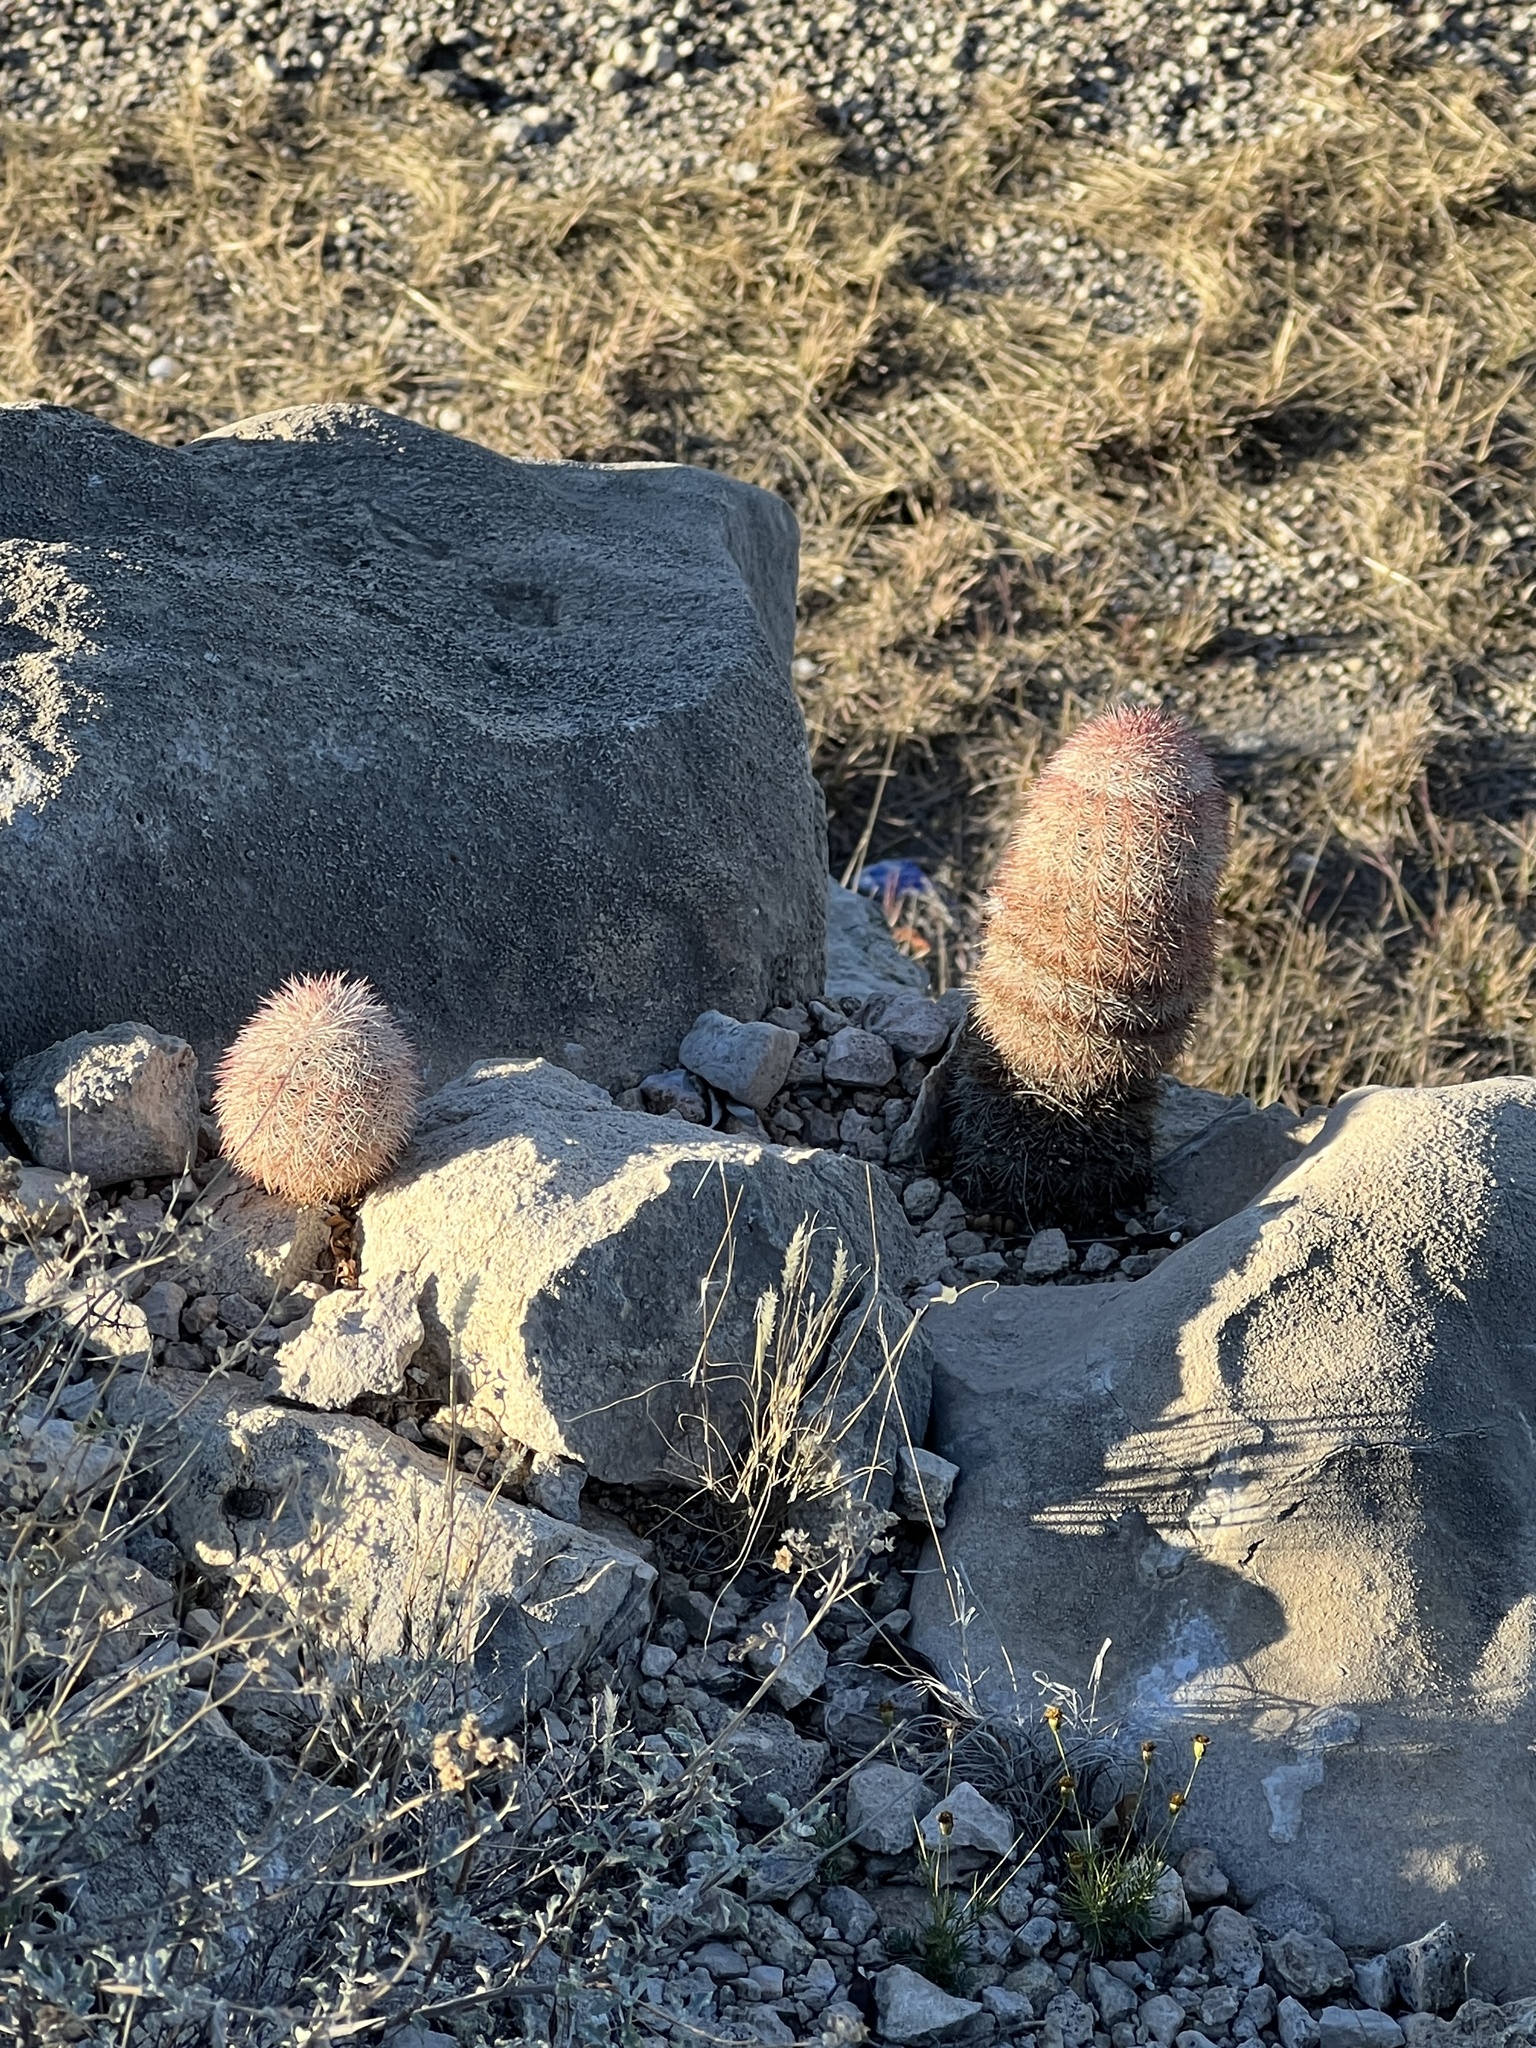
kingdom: Plantae
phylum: Tracheophyta
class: Magnoliopsida
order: Caryophyllales
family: Cactaceae
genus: Echinocereus
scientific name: Echinocereus dasyacanthus
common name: Spiny hedgehog cactus
